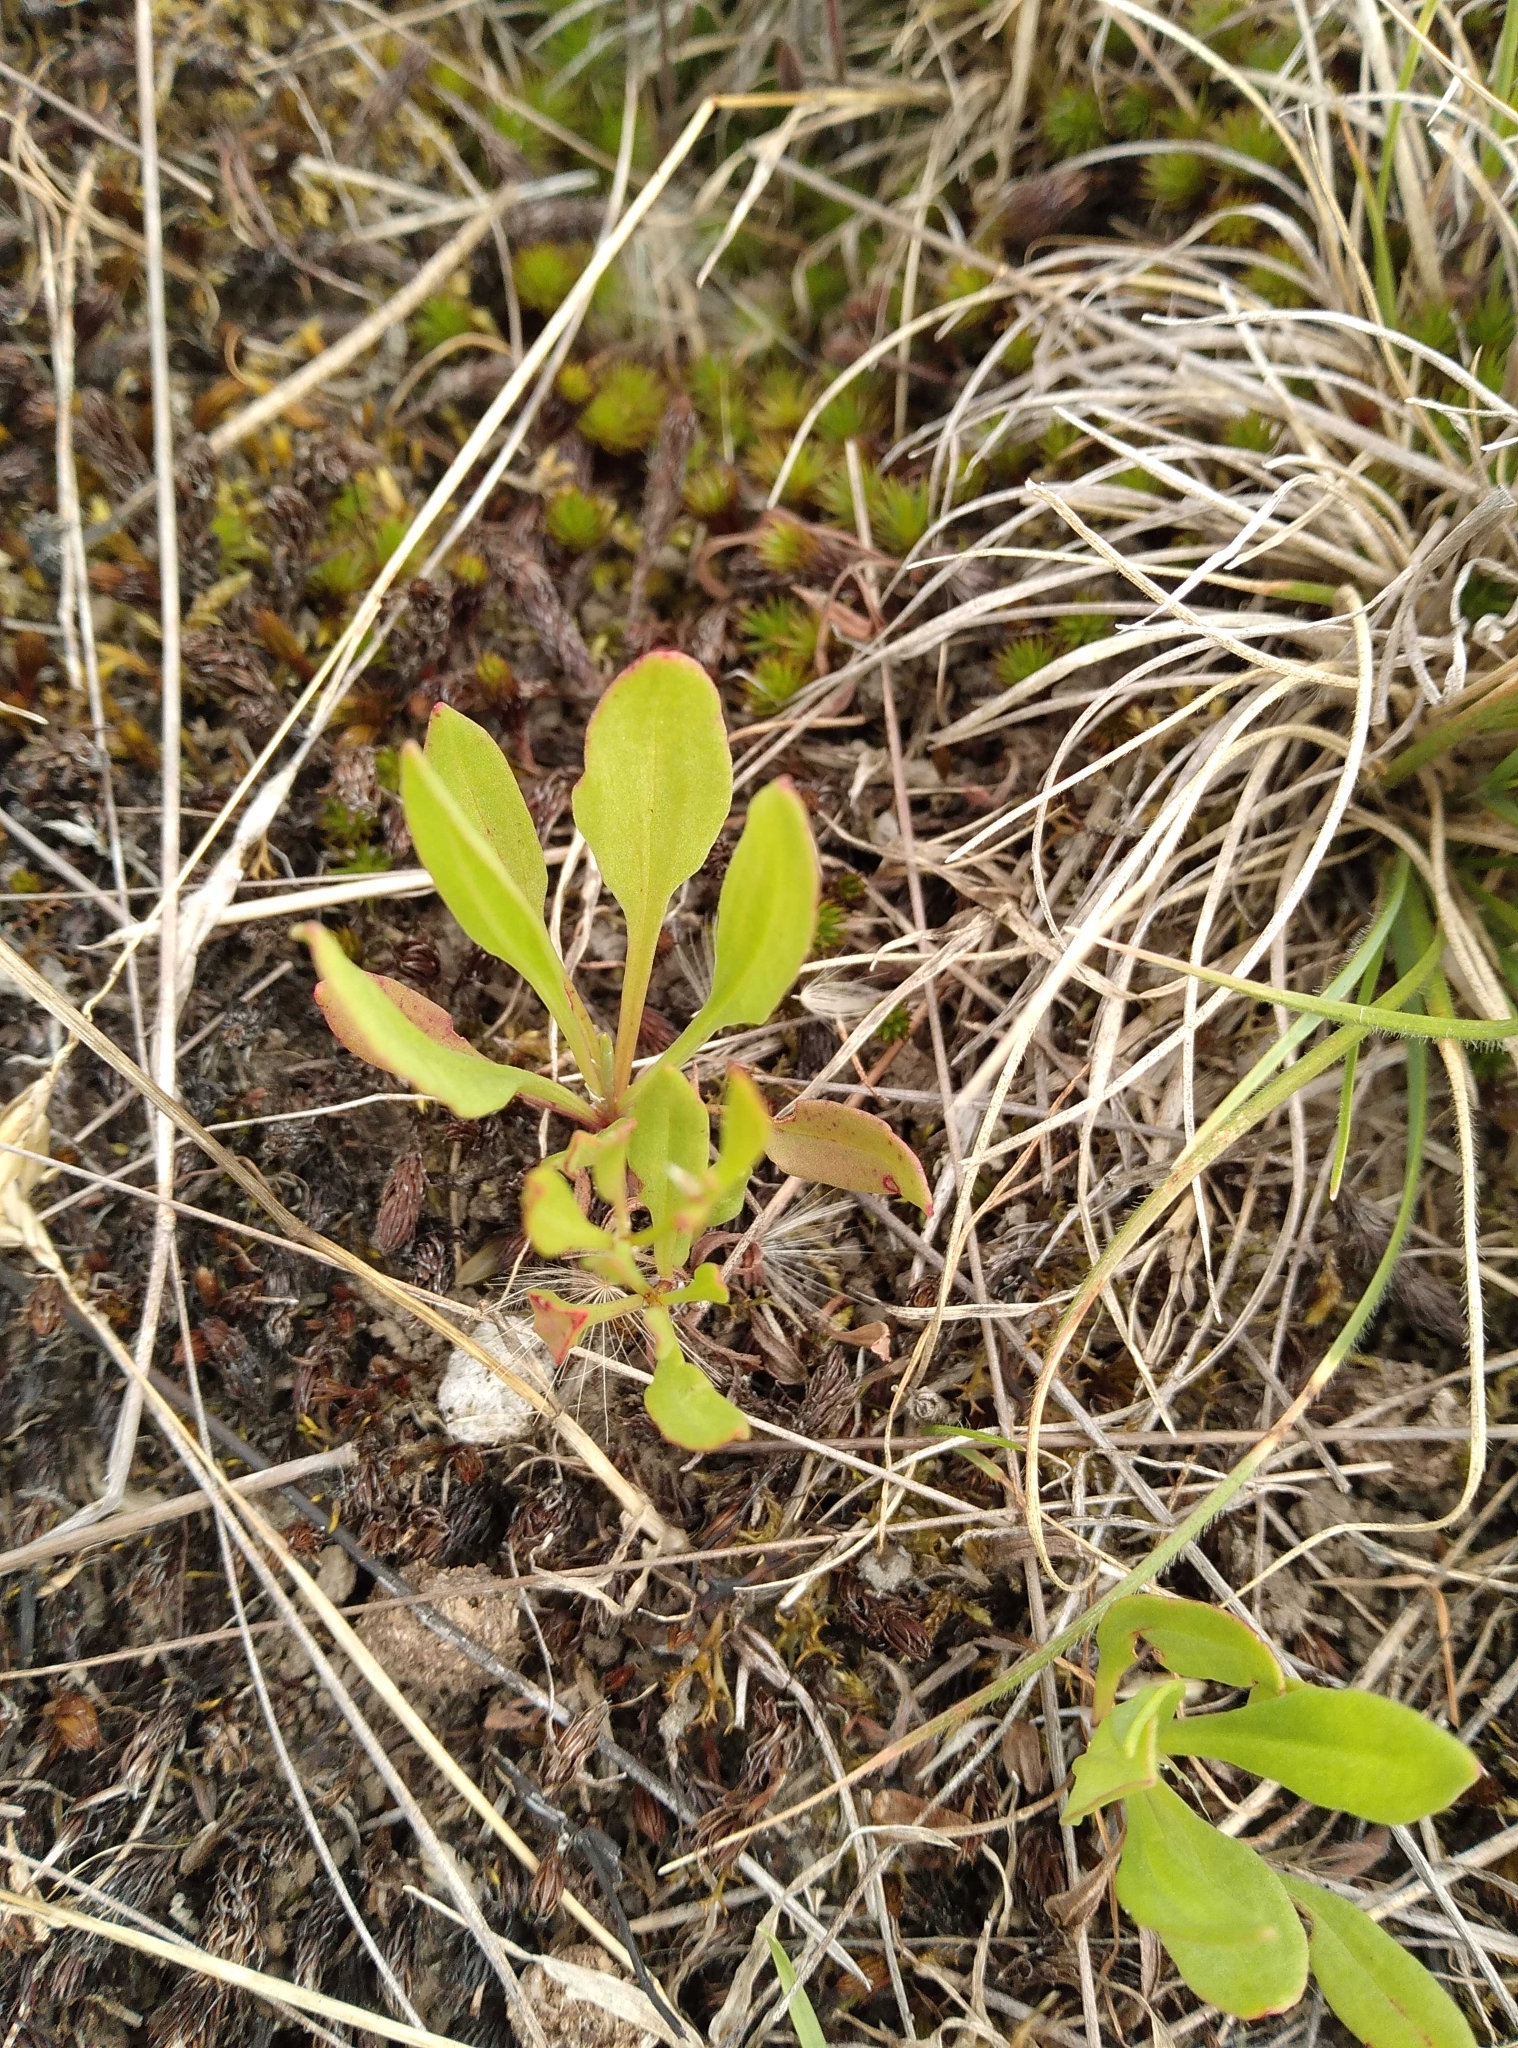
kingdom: Plantae
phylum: Tracheophyta
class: Magnoliopsida
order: Caryophyllales
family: Polygonaceae
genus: Rumex
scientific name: Rumex acetosella
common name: Common sheep sorrel
